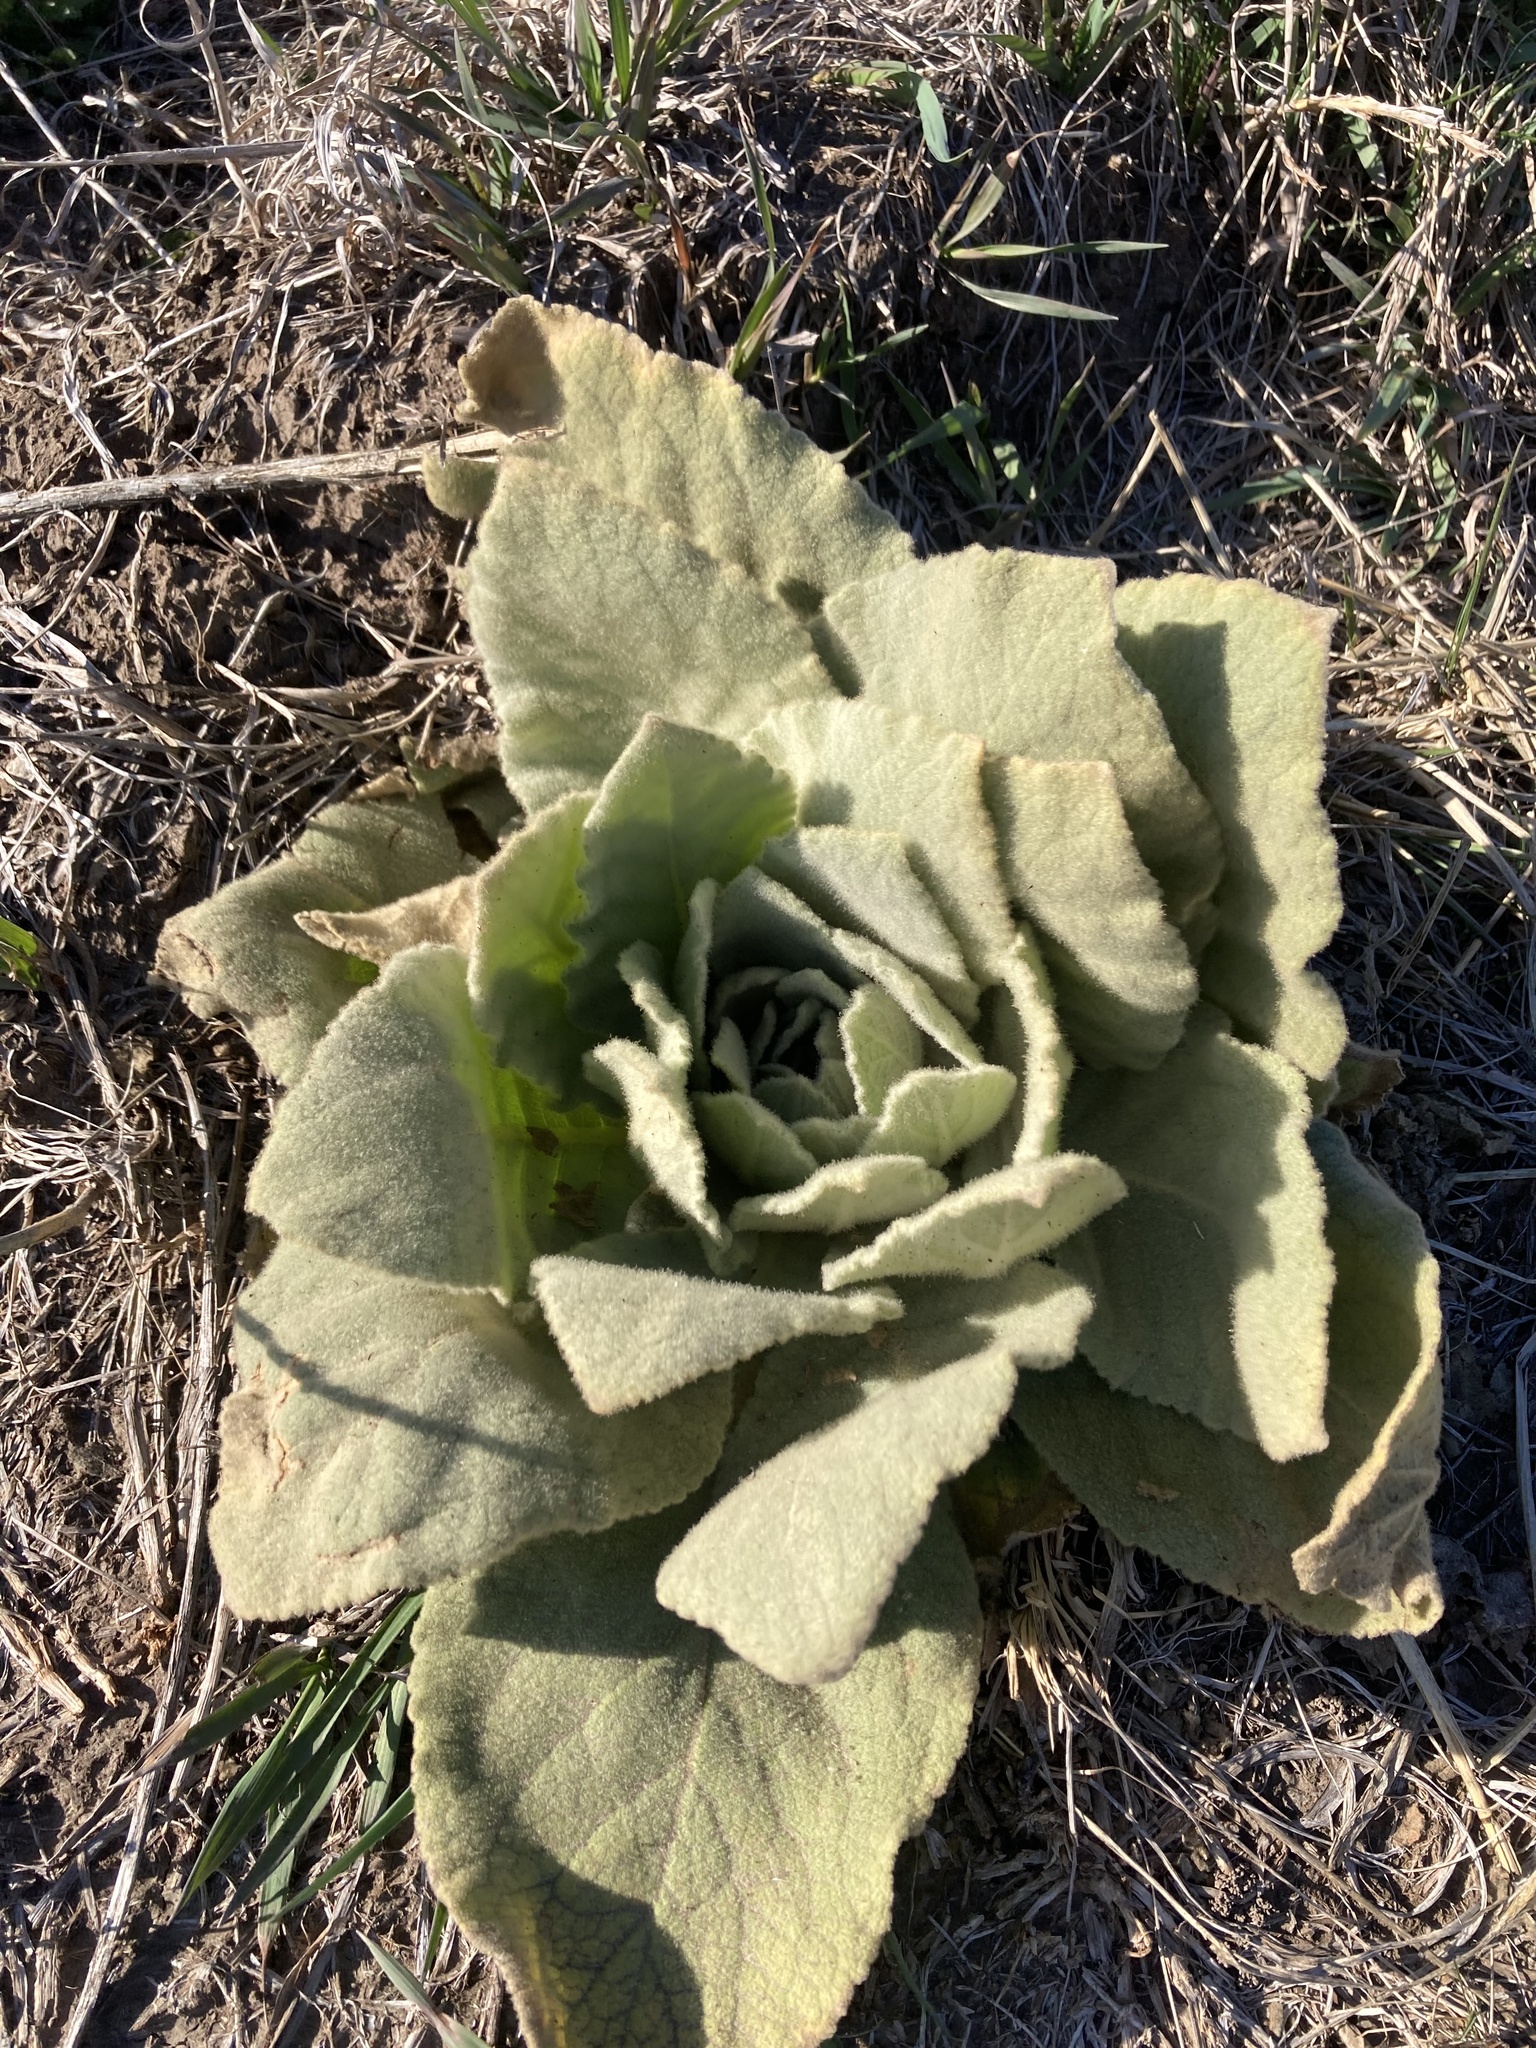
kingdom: Plantae
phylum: Tracheophyta
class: Magnoliopsida
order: Lamiales
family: Scrophulariaceae
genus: Verbascum
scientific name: Verbascum thapsus
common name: Common mullein
